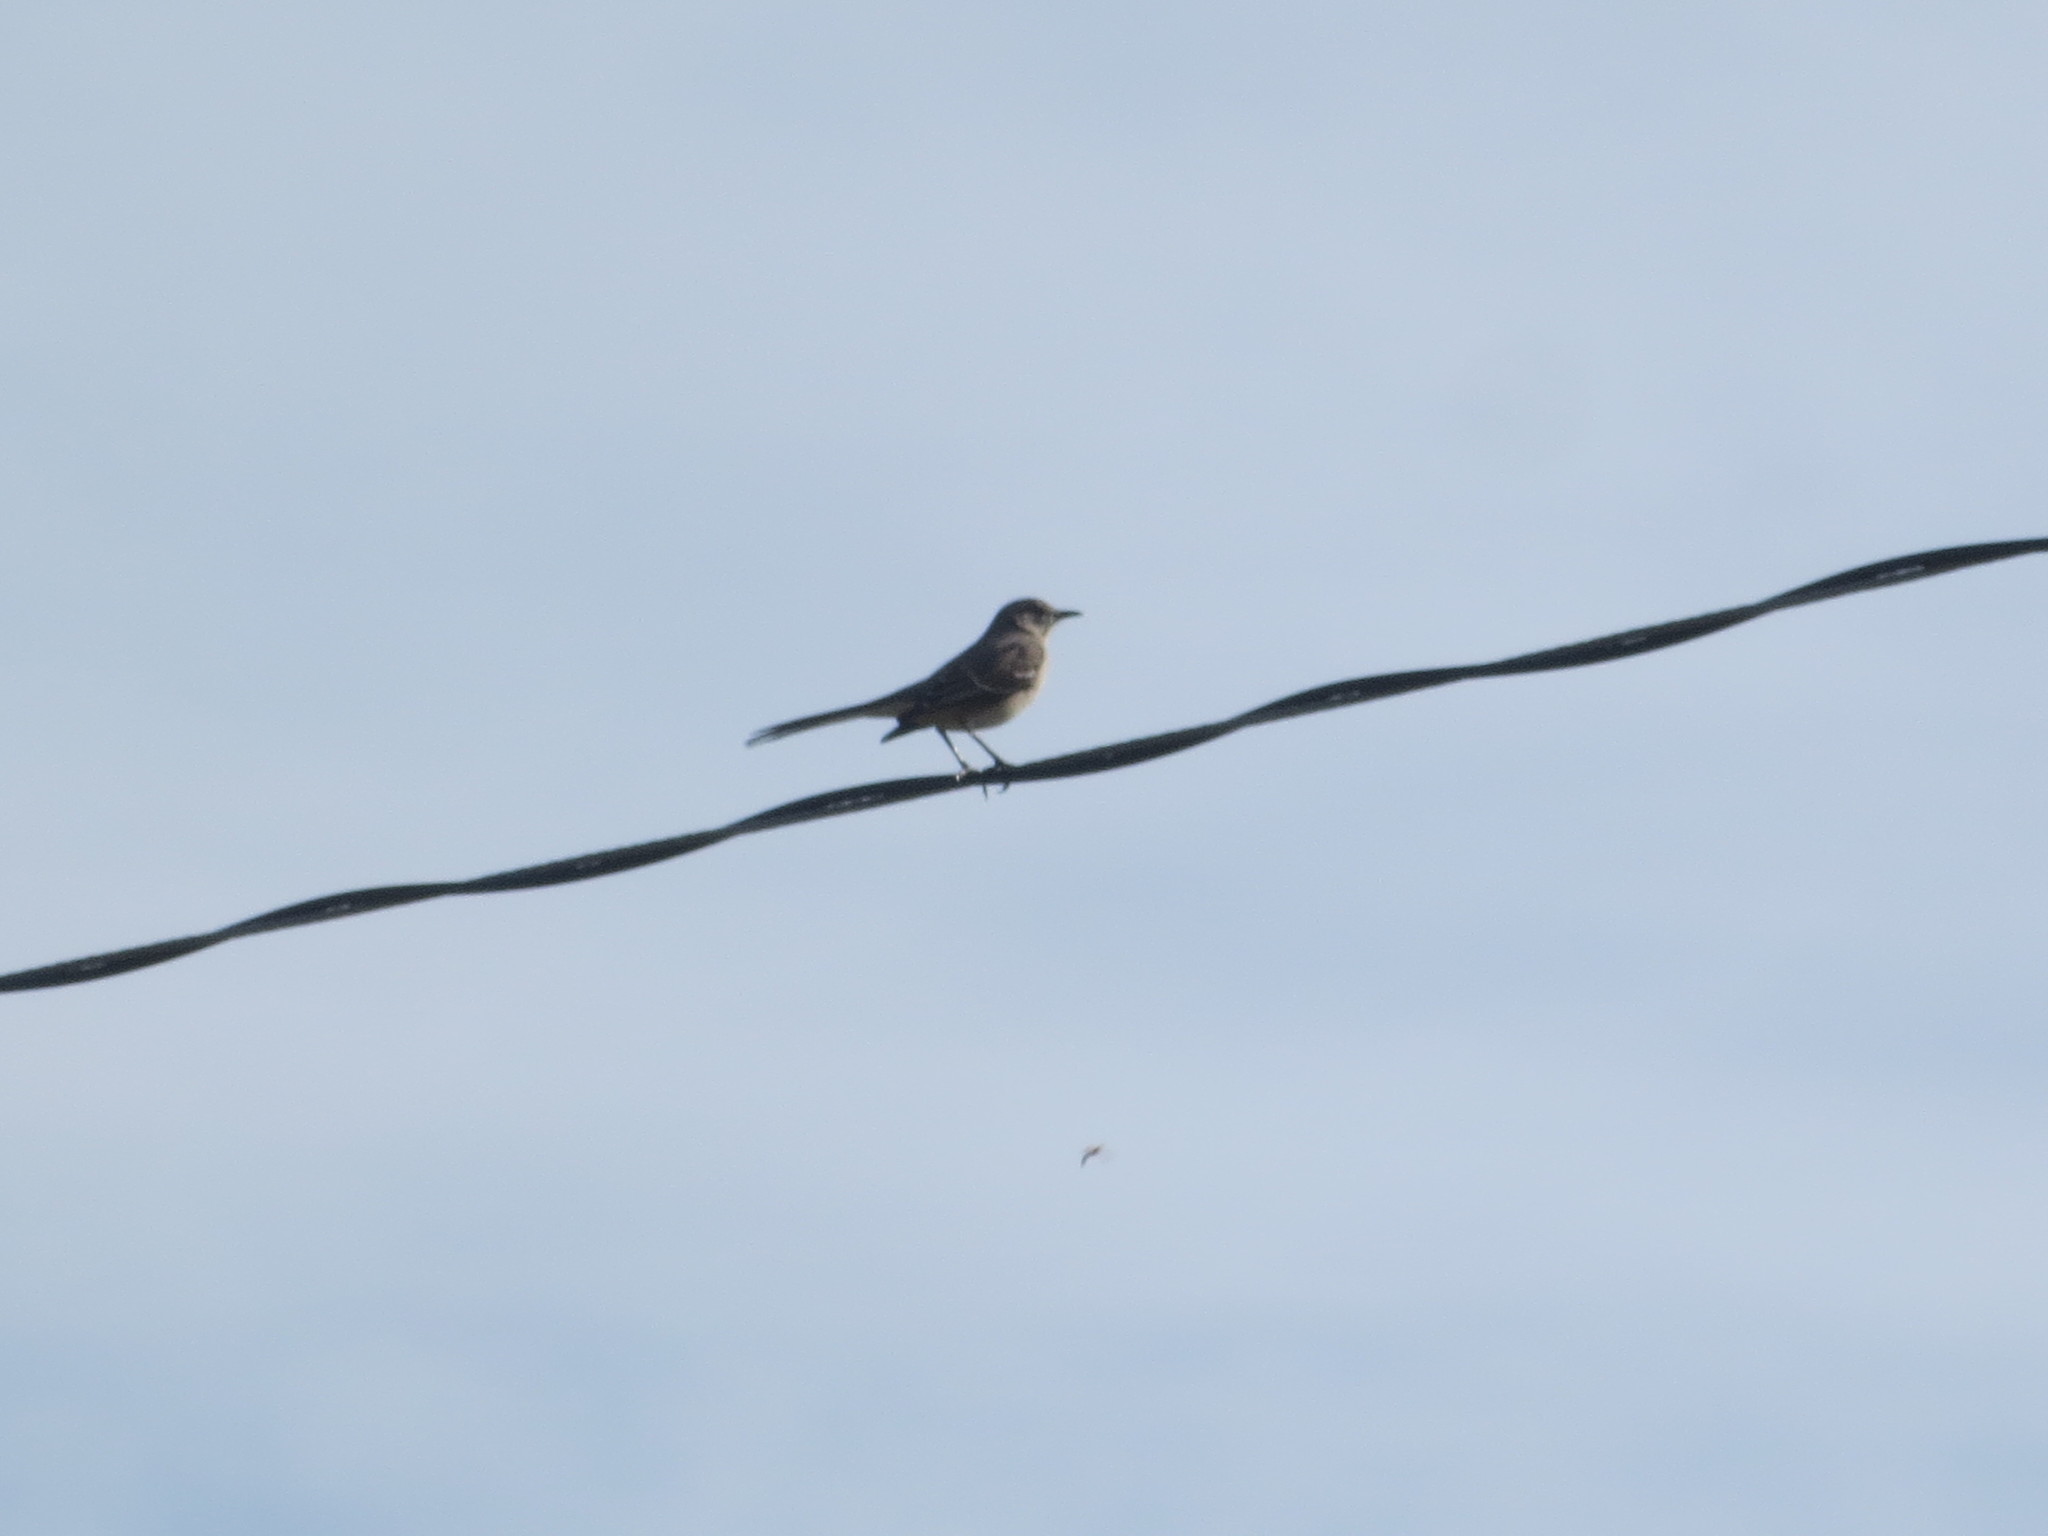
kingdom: Animalia
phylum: Chordata
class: Aves
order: Passeriformes
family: Mimidae
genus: Mimus
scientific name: Mimus polyglottos
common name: Northern mockingbird
